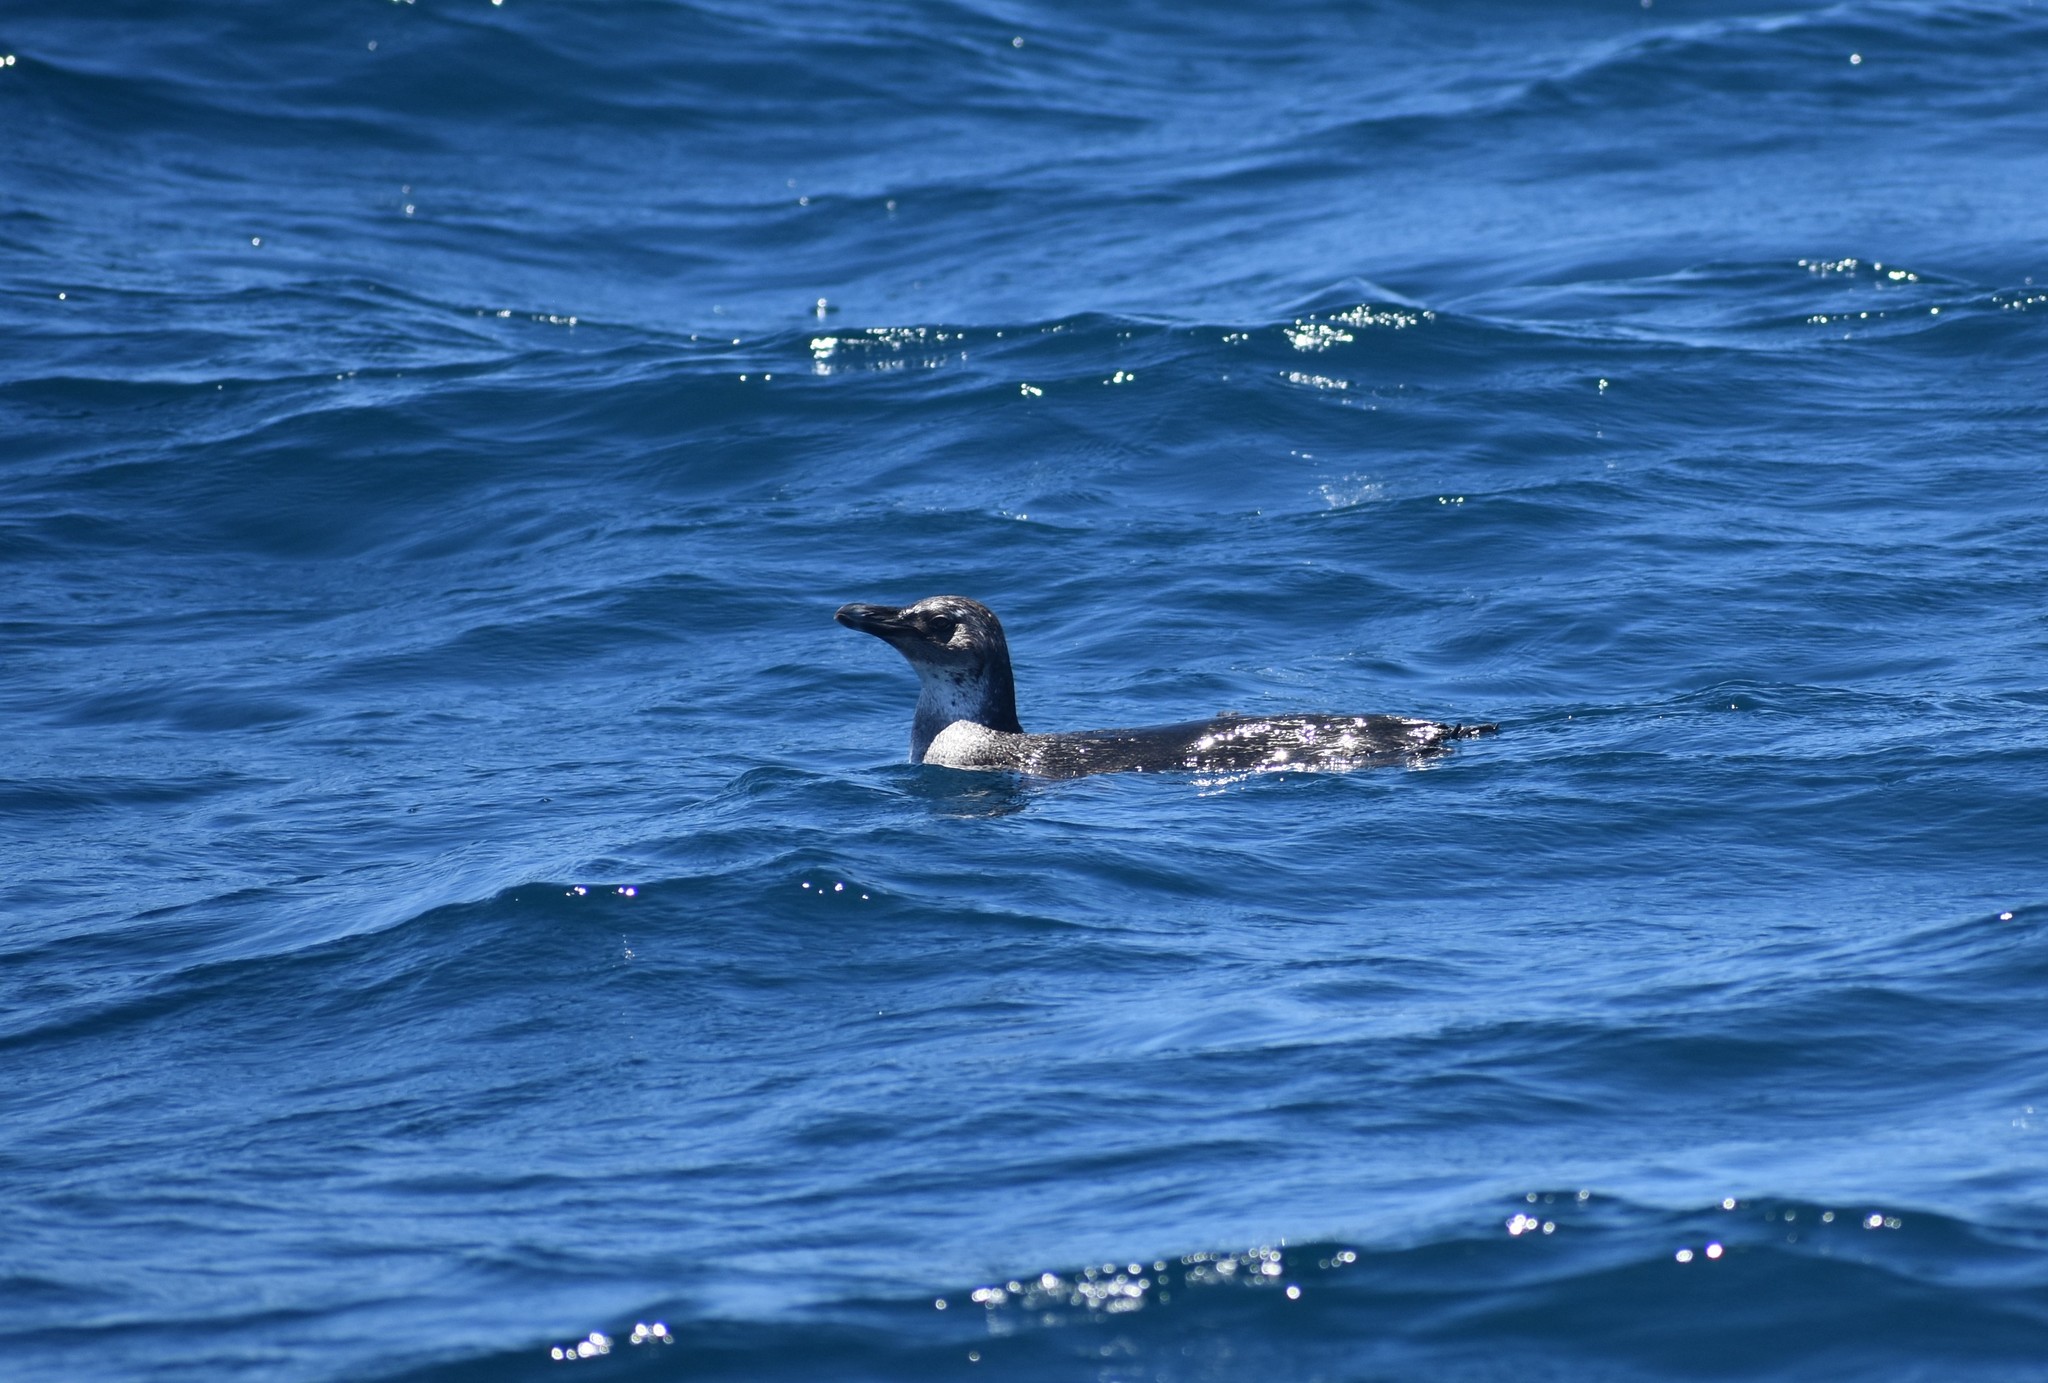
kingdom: Animalia
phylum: Chordata
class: Aves
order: Sphenisciformes
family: Spheniscidae
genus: Spheniscus
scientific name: Spheniscus demersus
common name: African penguin
